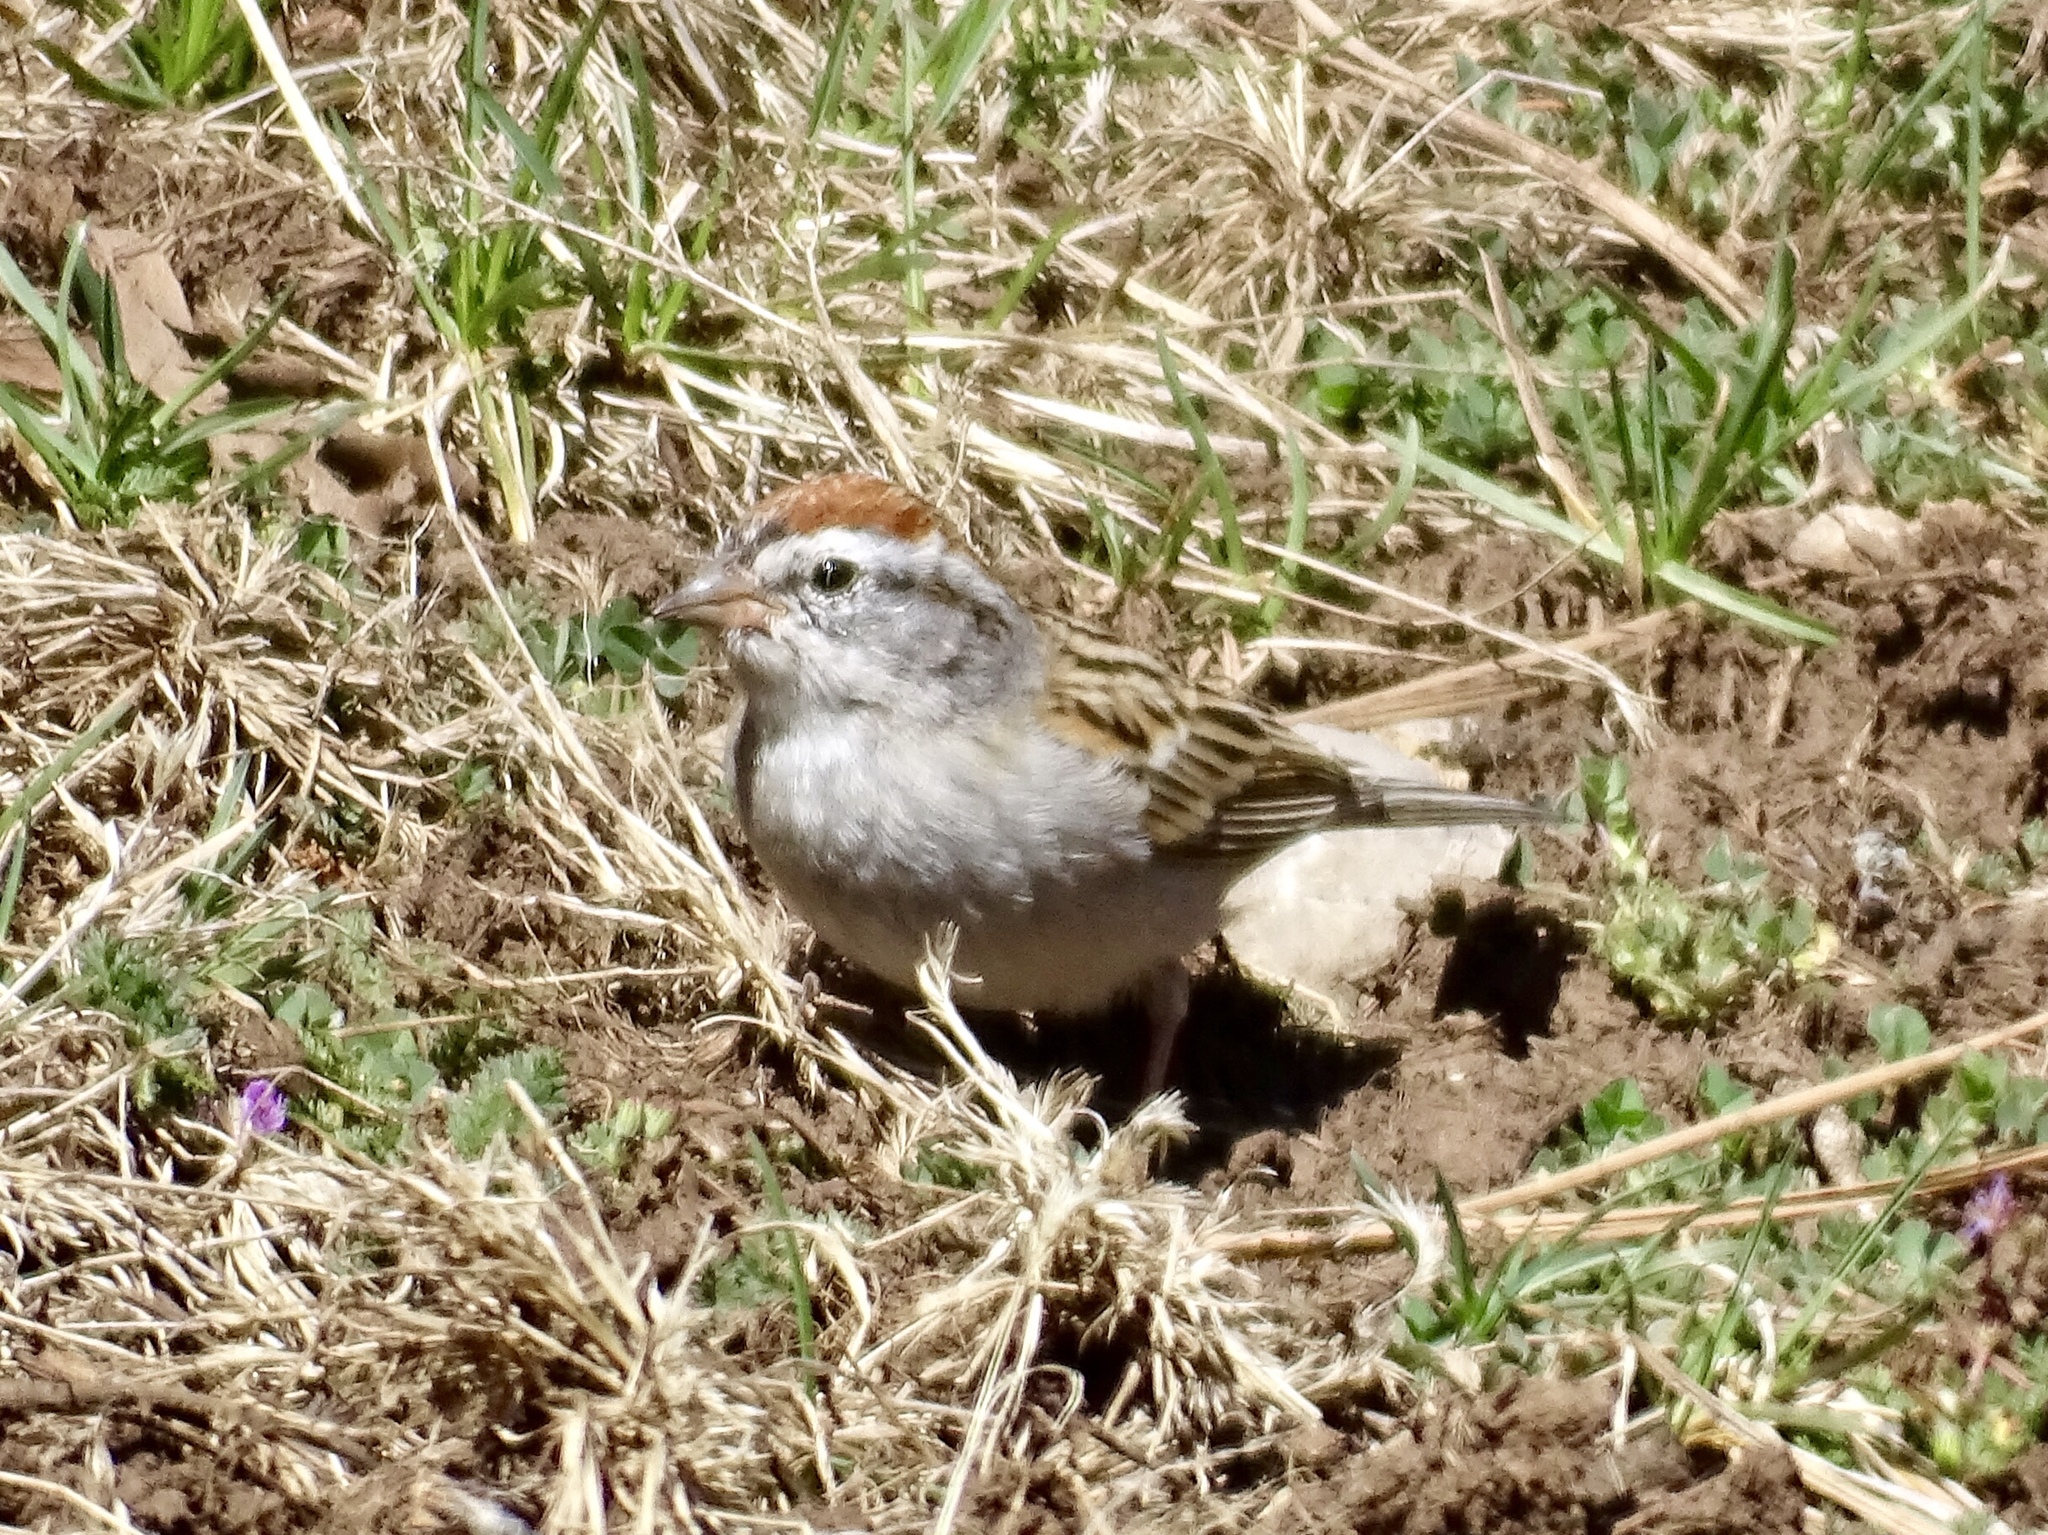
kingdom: Animalia
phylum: Chordata
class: Aves
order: Passeriformes
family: Passerellidae
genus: Spizella
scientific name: Spizella passerina
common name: Chipping sparrow
